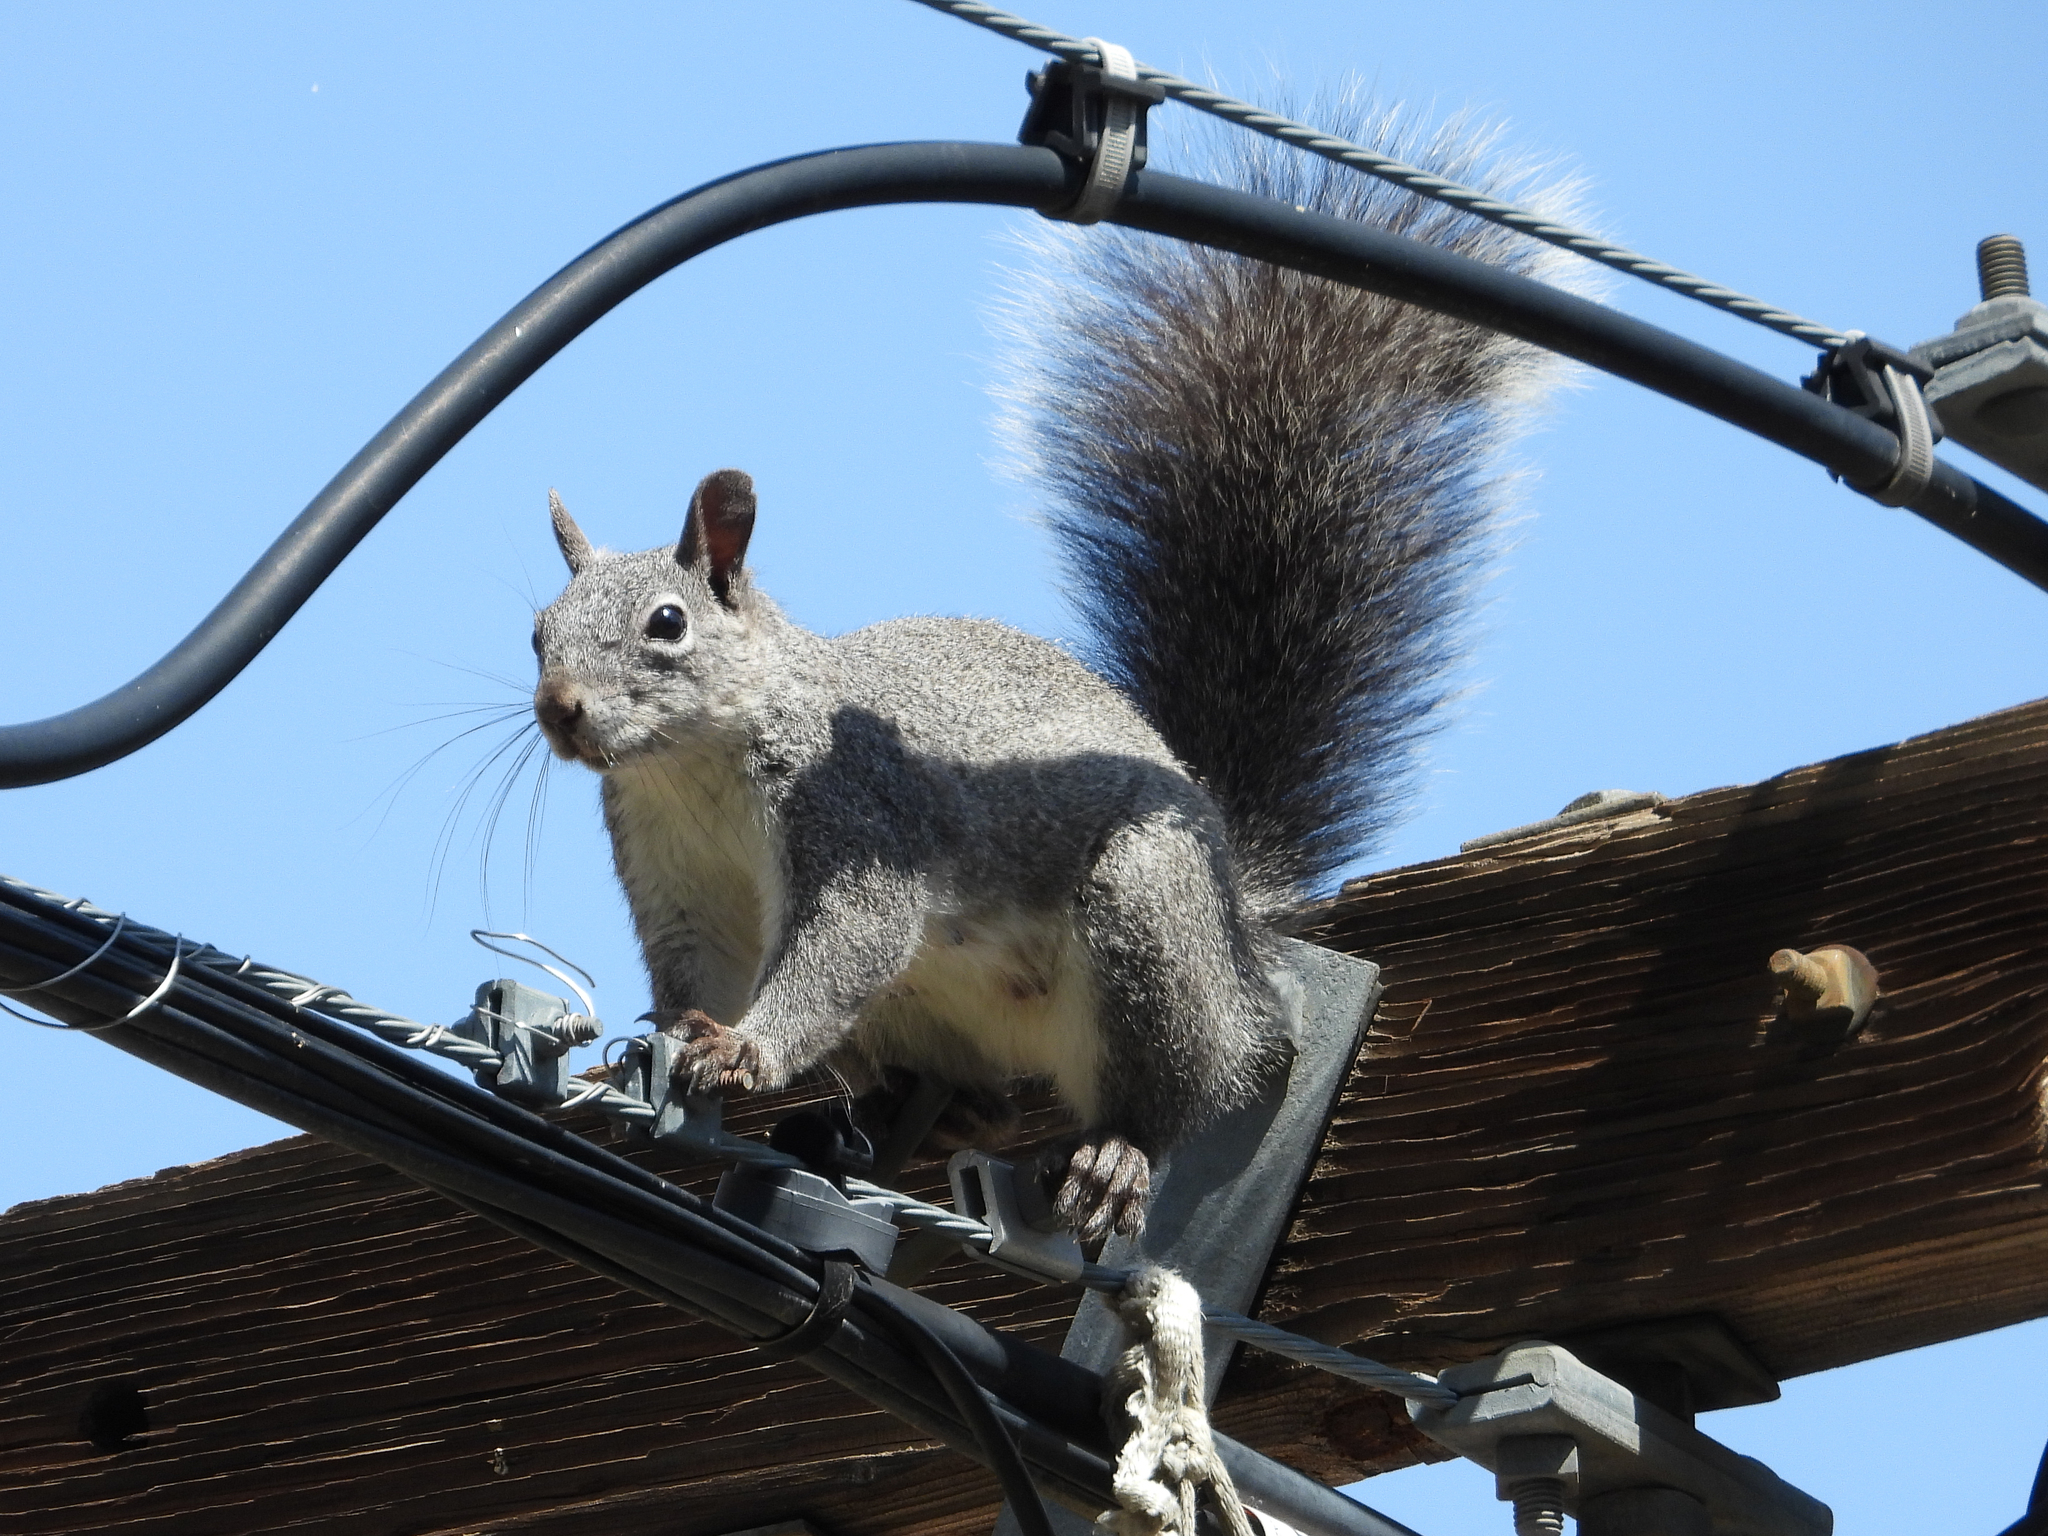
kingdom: Animalia
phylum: Chordata
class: Mammalia
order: Rodentia
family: Sciuridae
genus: Sciurus
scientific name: Sciurus griseus
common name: Western gray squirrel
